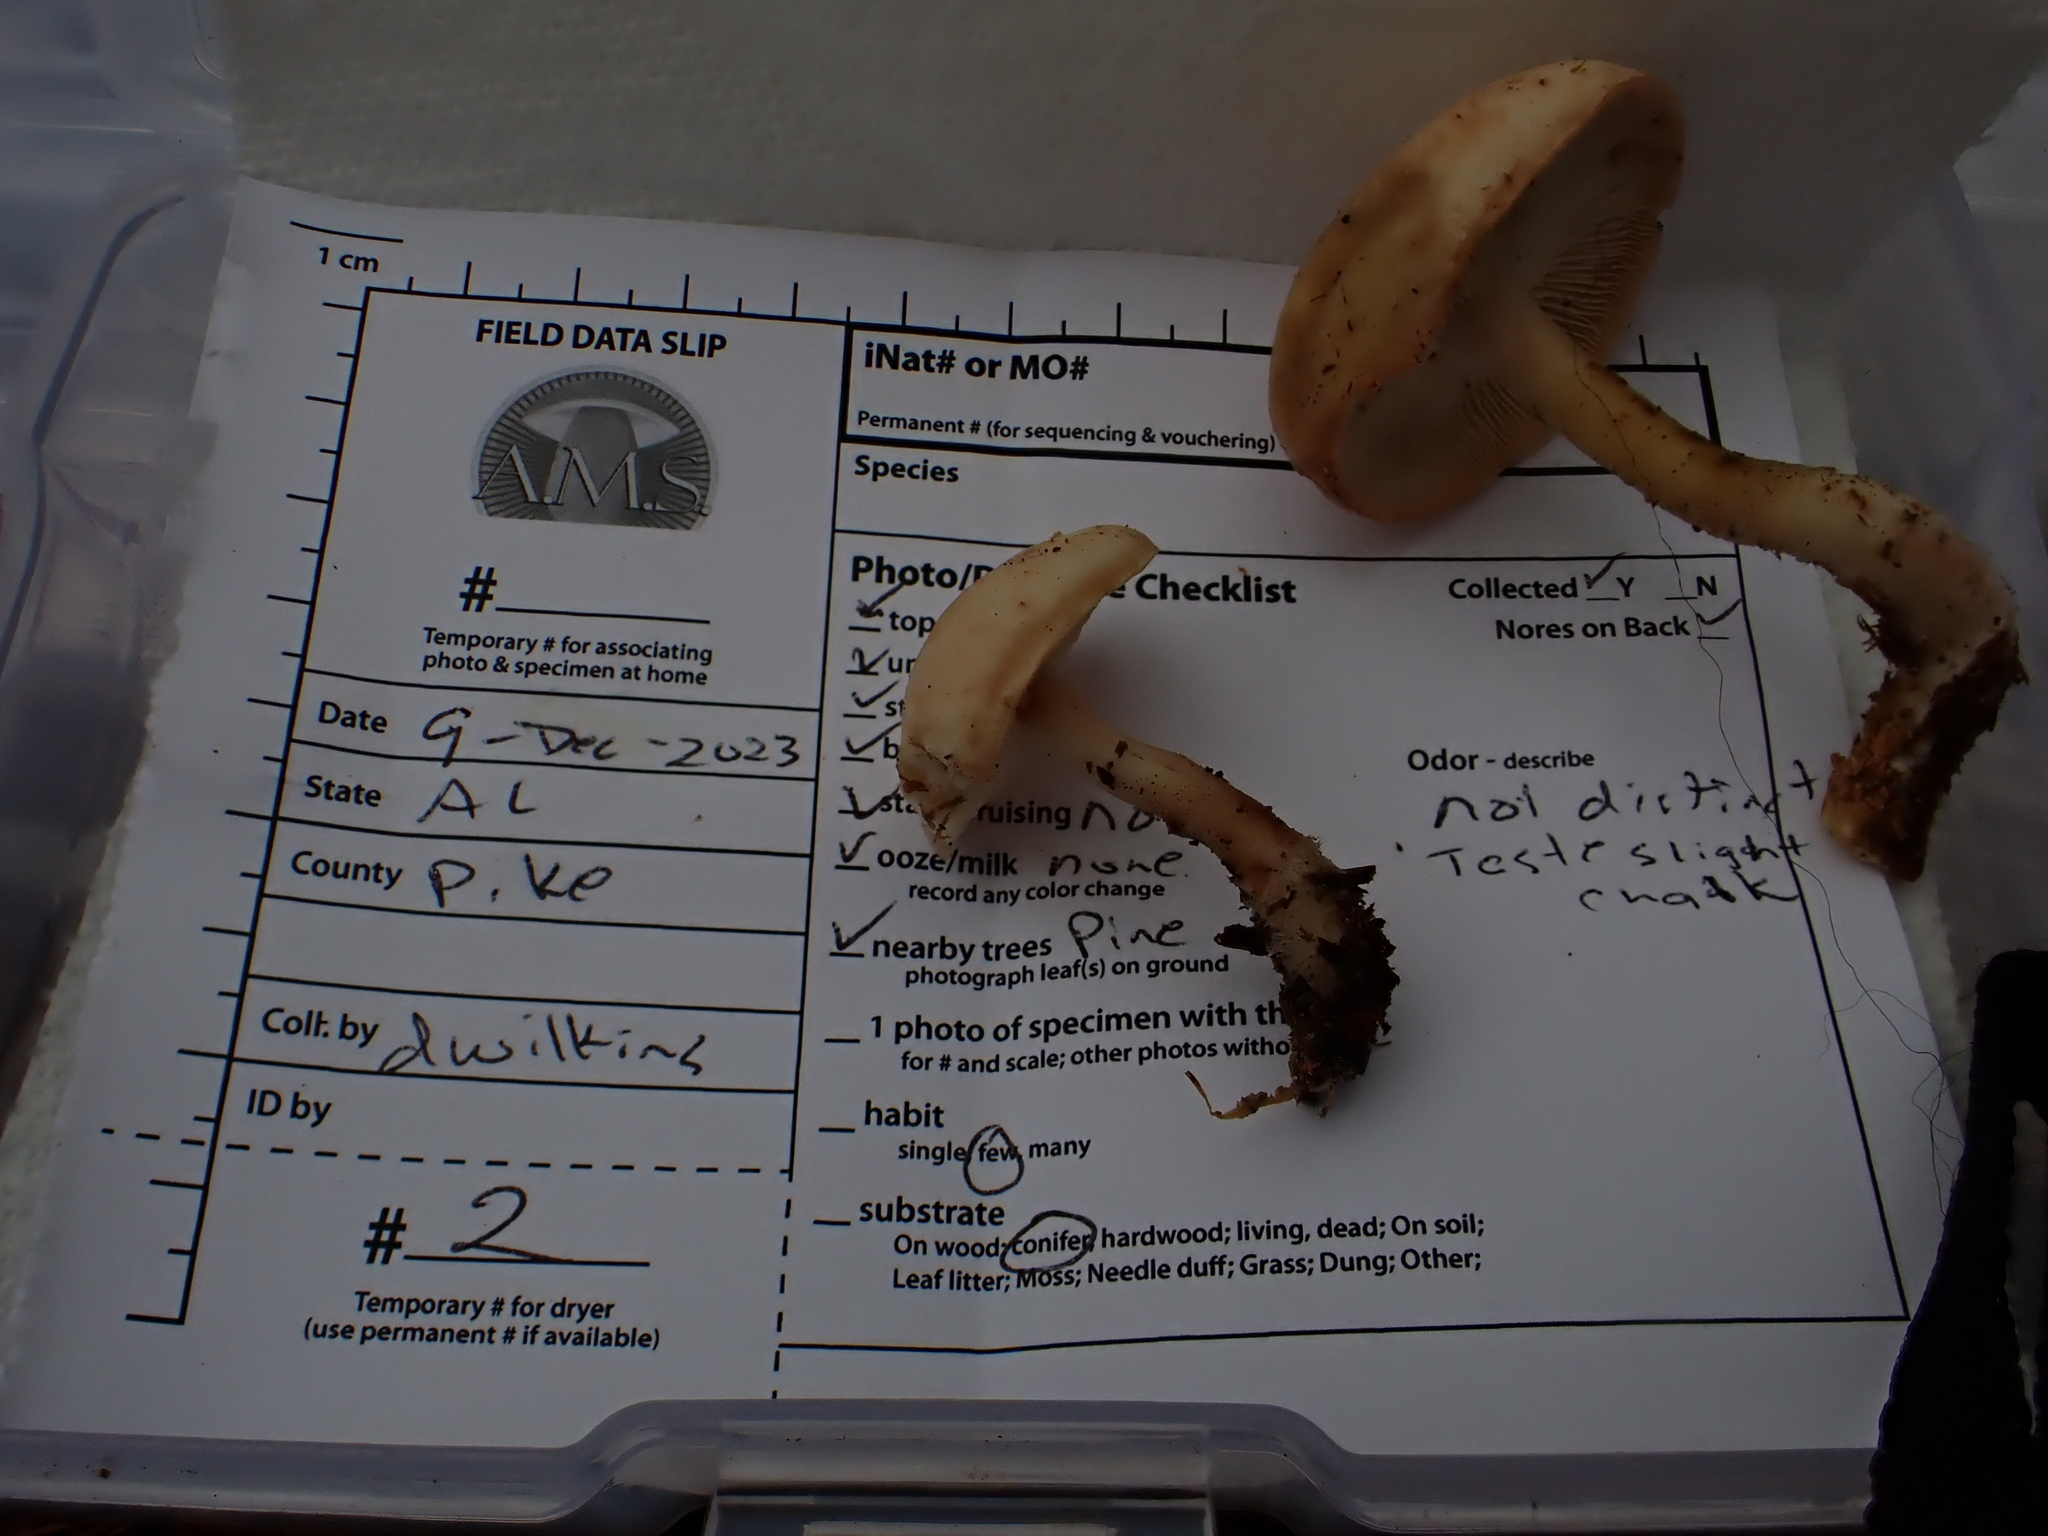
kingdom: Fungi
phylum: Basidiomycota
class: Agaricomycetes
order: Agaricales
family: Omphalotaceae
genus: Rhodocollybia
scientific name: Rhodocollybia maculata
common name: Spotted tough-shank
